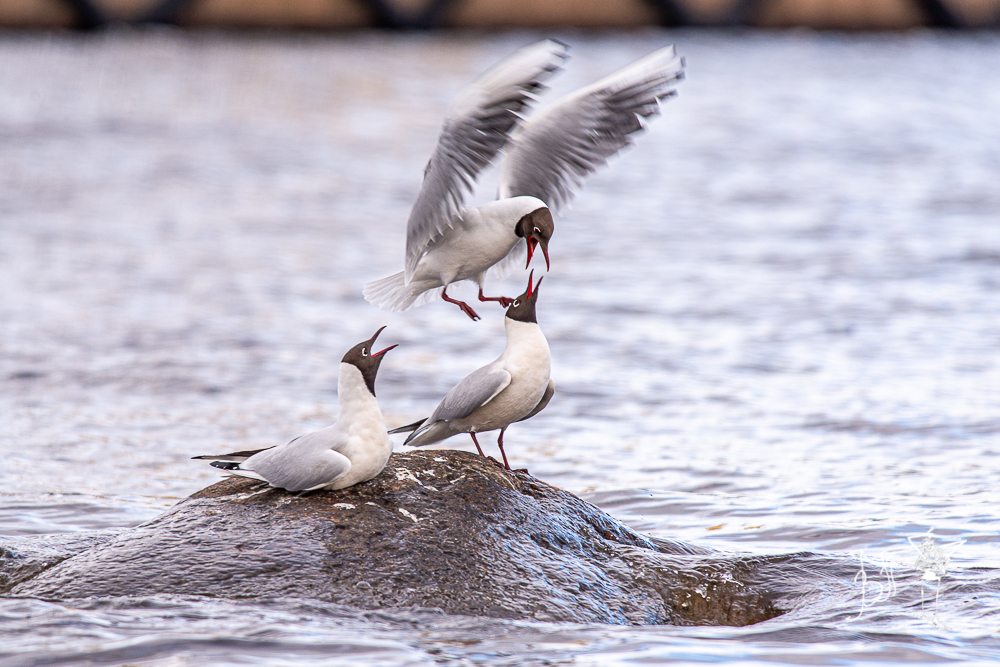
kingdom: Animalia
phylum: Chordata
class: Aves
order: Charadriiformes
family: Laridae
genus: Chroicocephalus
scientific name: Chroicocephalus ridibundus
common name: Black-headed gull
